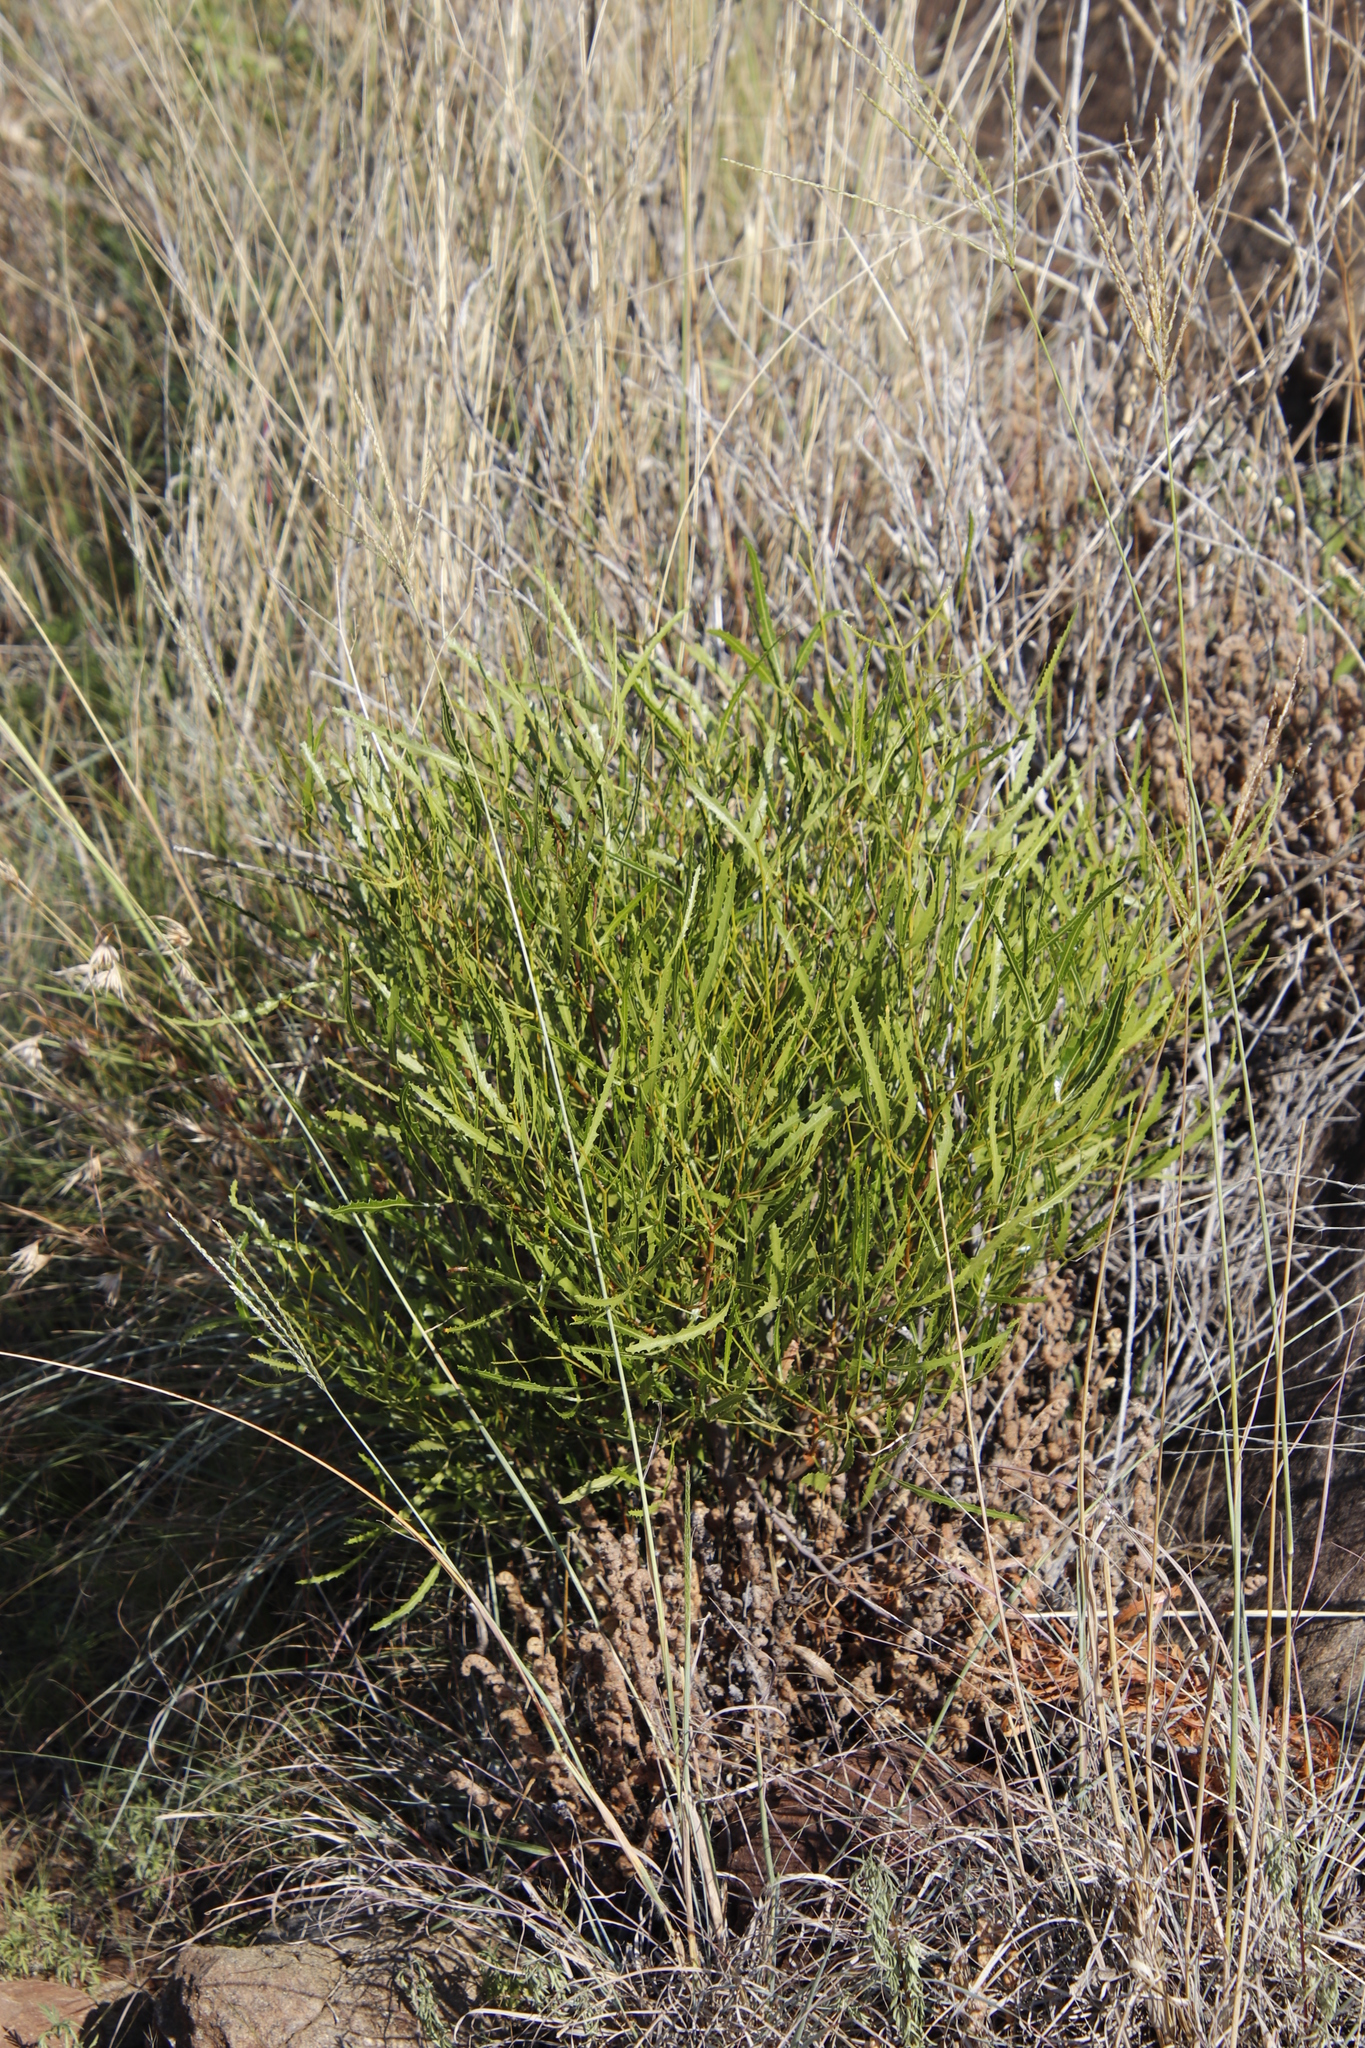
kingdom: Plantae
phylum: Tracheophyta
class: Magnoliopsida
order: Sapindales
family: Anacardiaceae
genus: Searsia
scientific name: Searsia erosa
